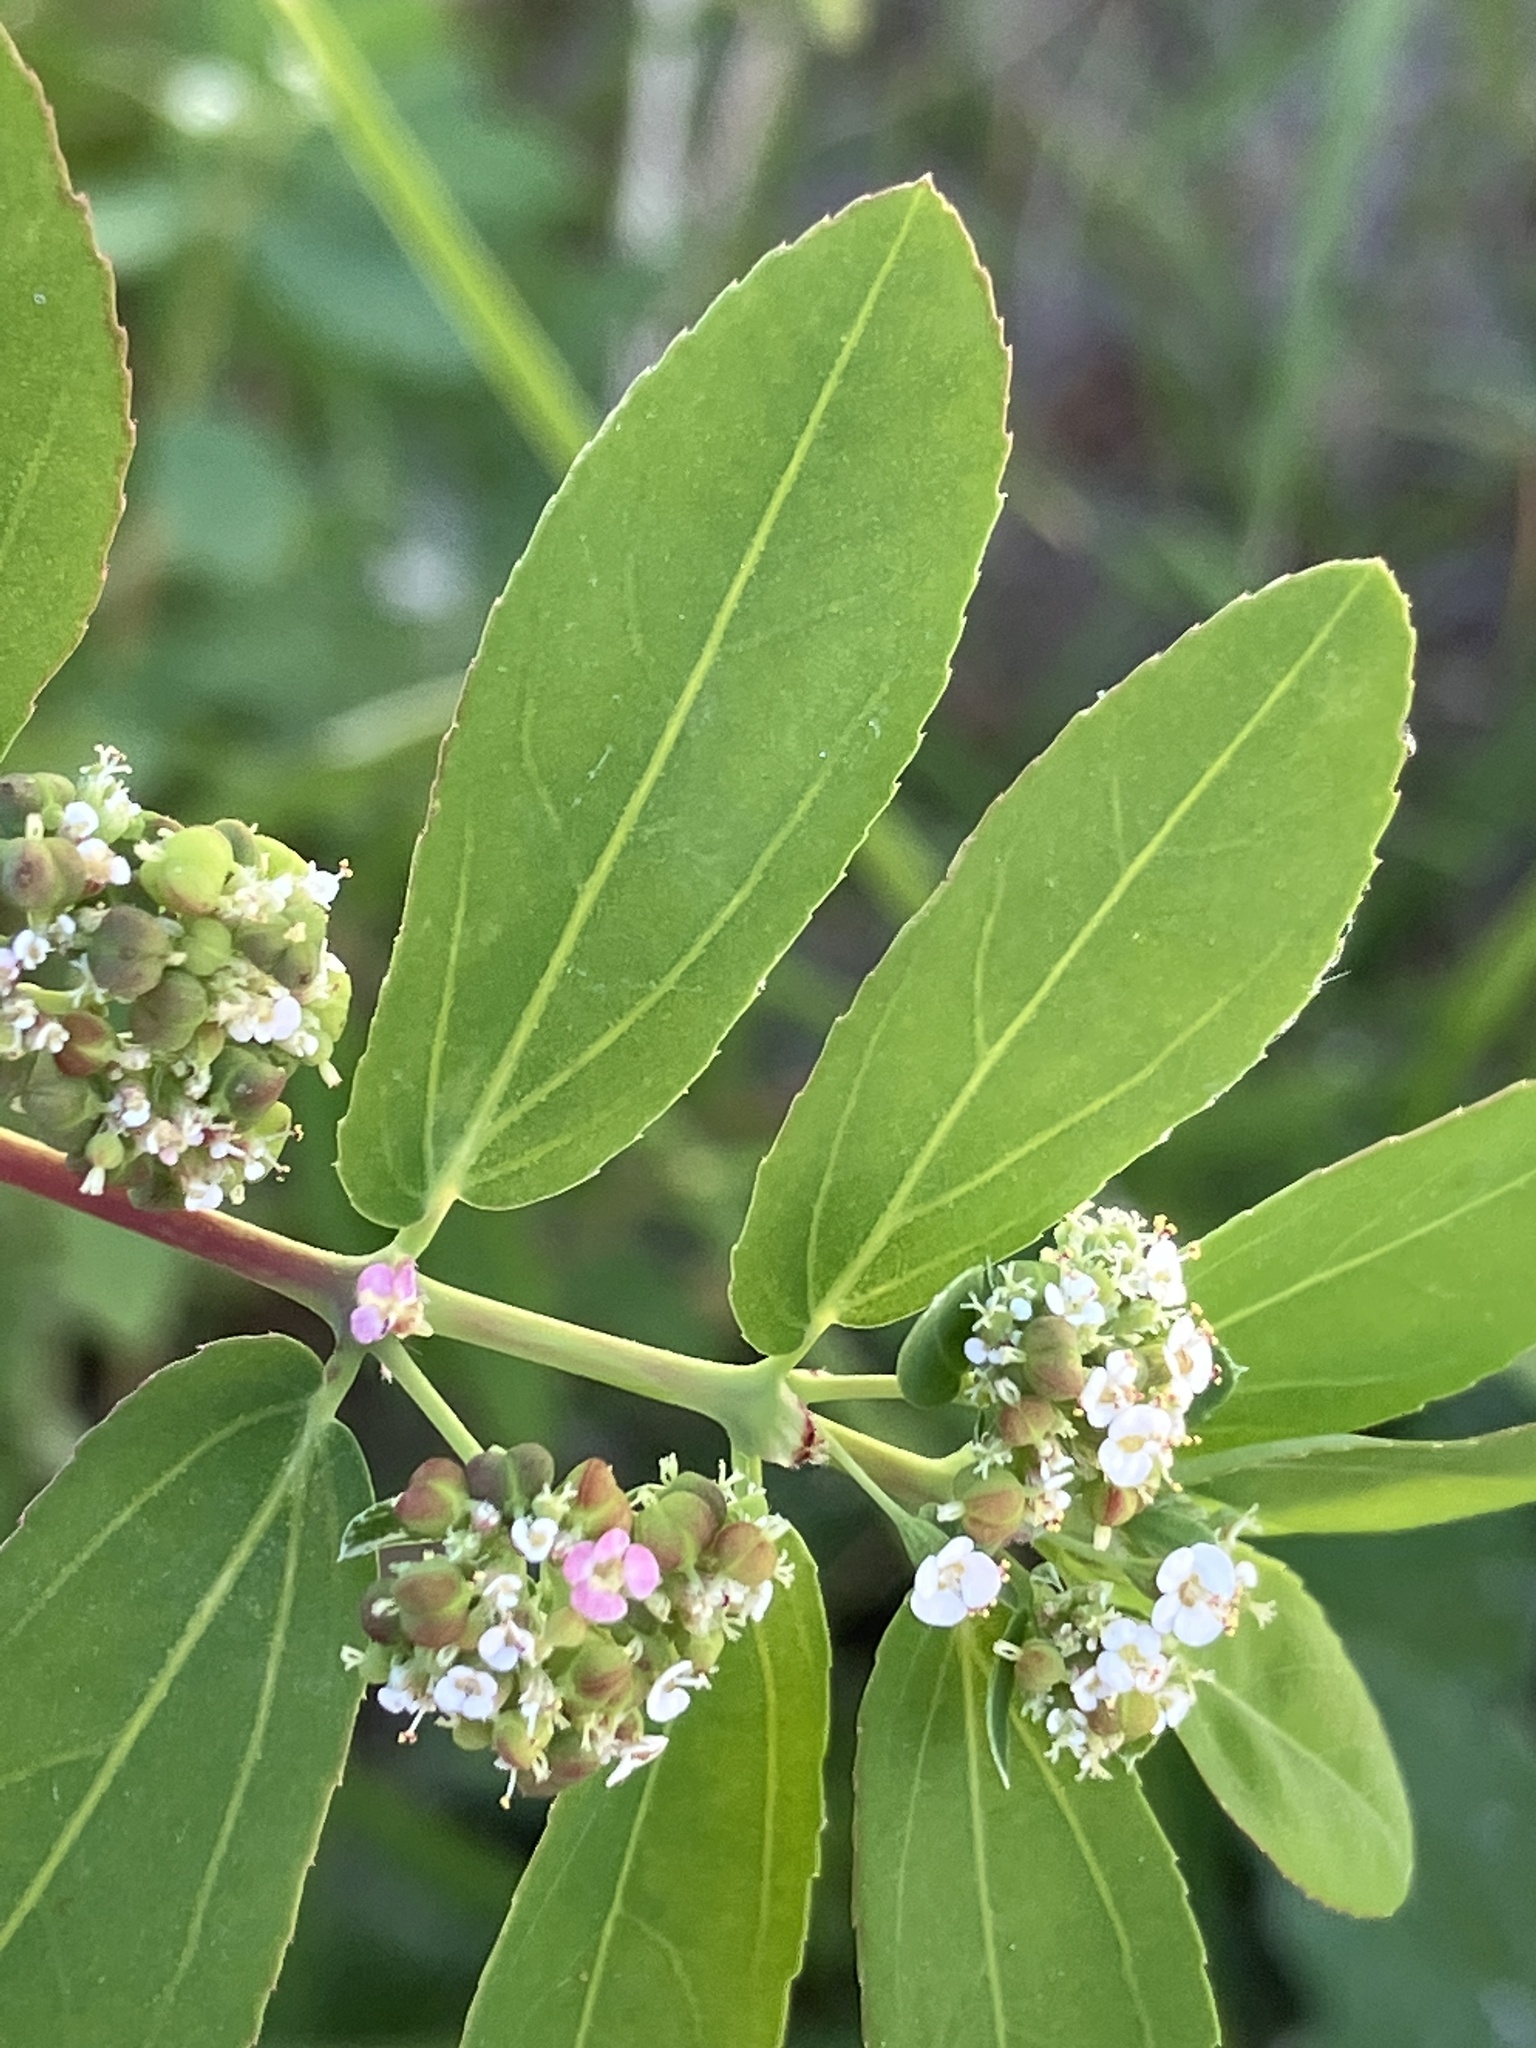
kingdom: Plantae
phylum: Tracheophyta
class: Magnoliopsida
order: Malpighiales
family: Euphorbiaceae
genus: Euphorbia
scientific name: Euphorbia hypericifolia
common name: Graceful sandmat
